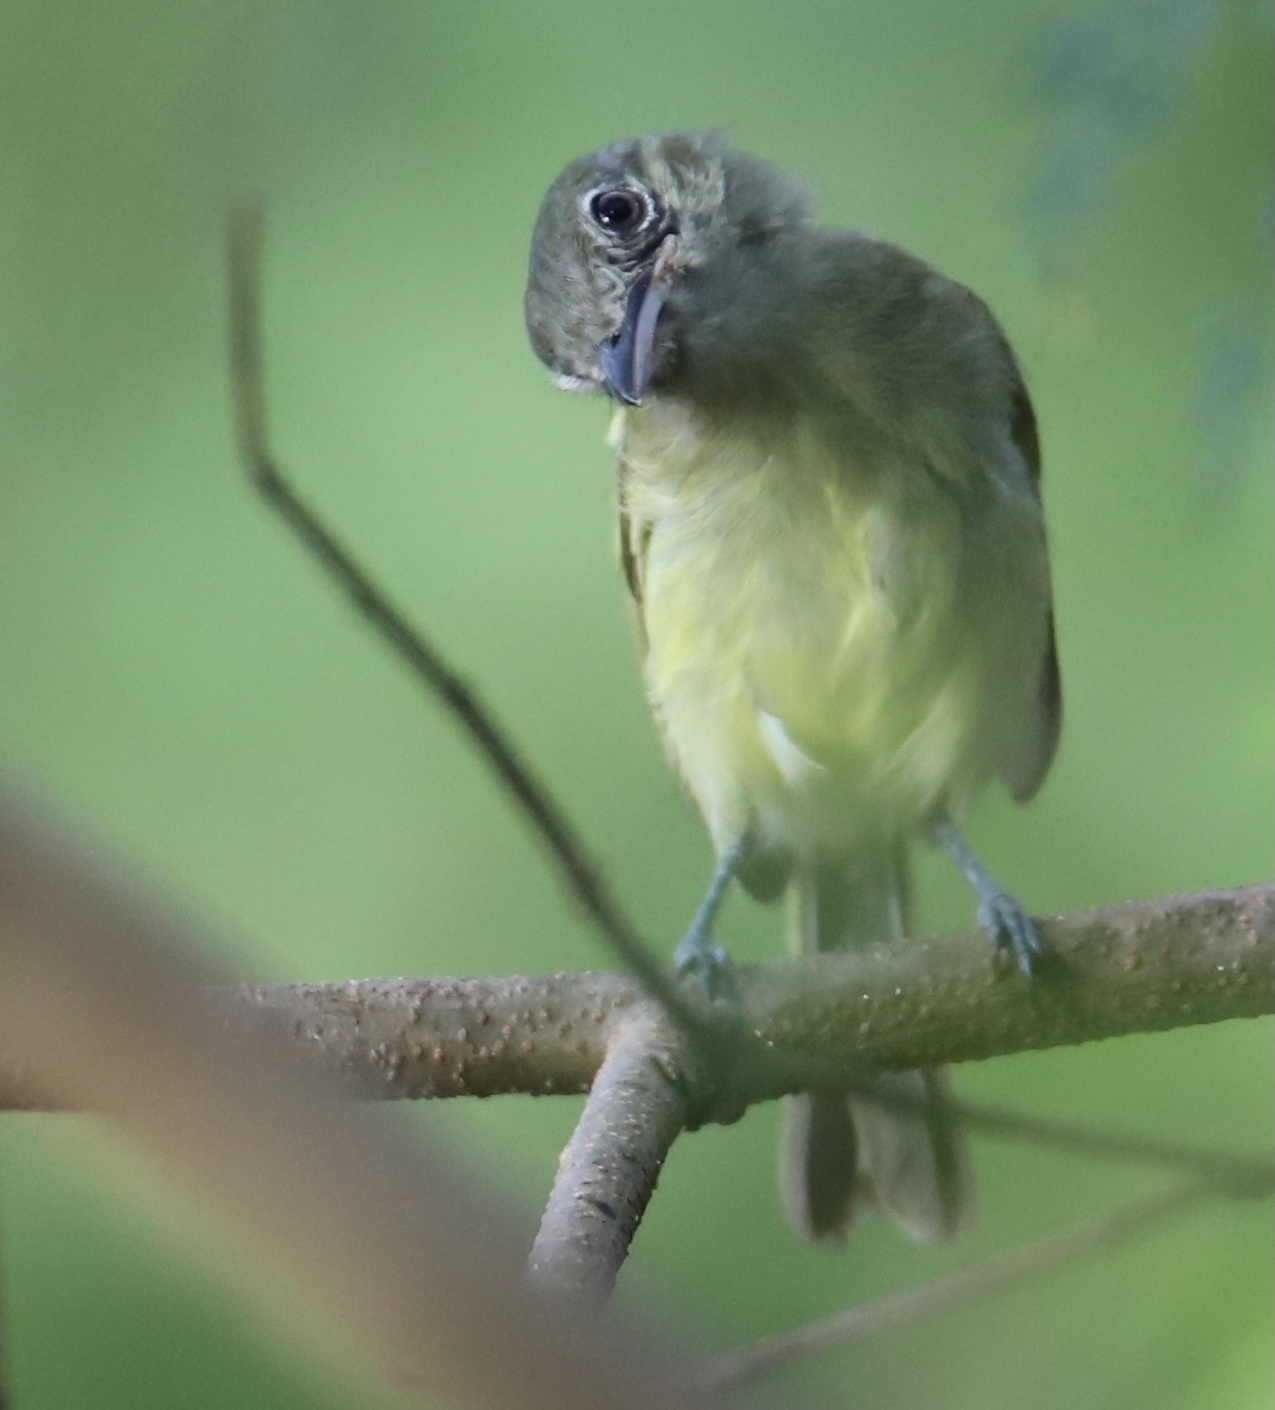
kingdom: Animalia
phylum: Chordata
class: Aves
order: Passeriformes
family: Tyrannidae
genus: Tolmomyias
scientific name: Tolmomyias sulphurescens
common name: Yellow-olive flycatcher
